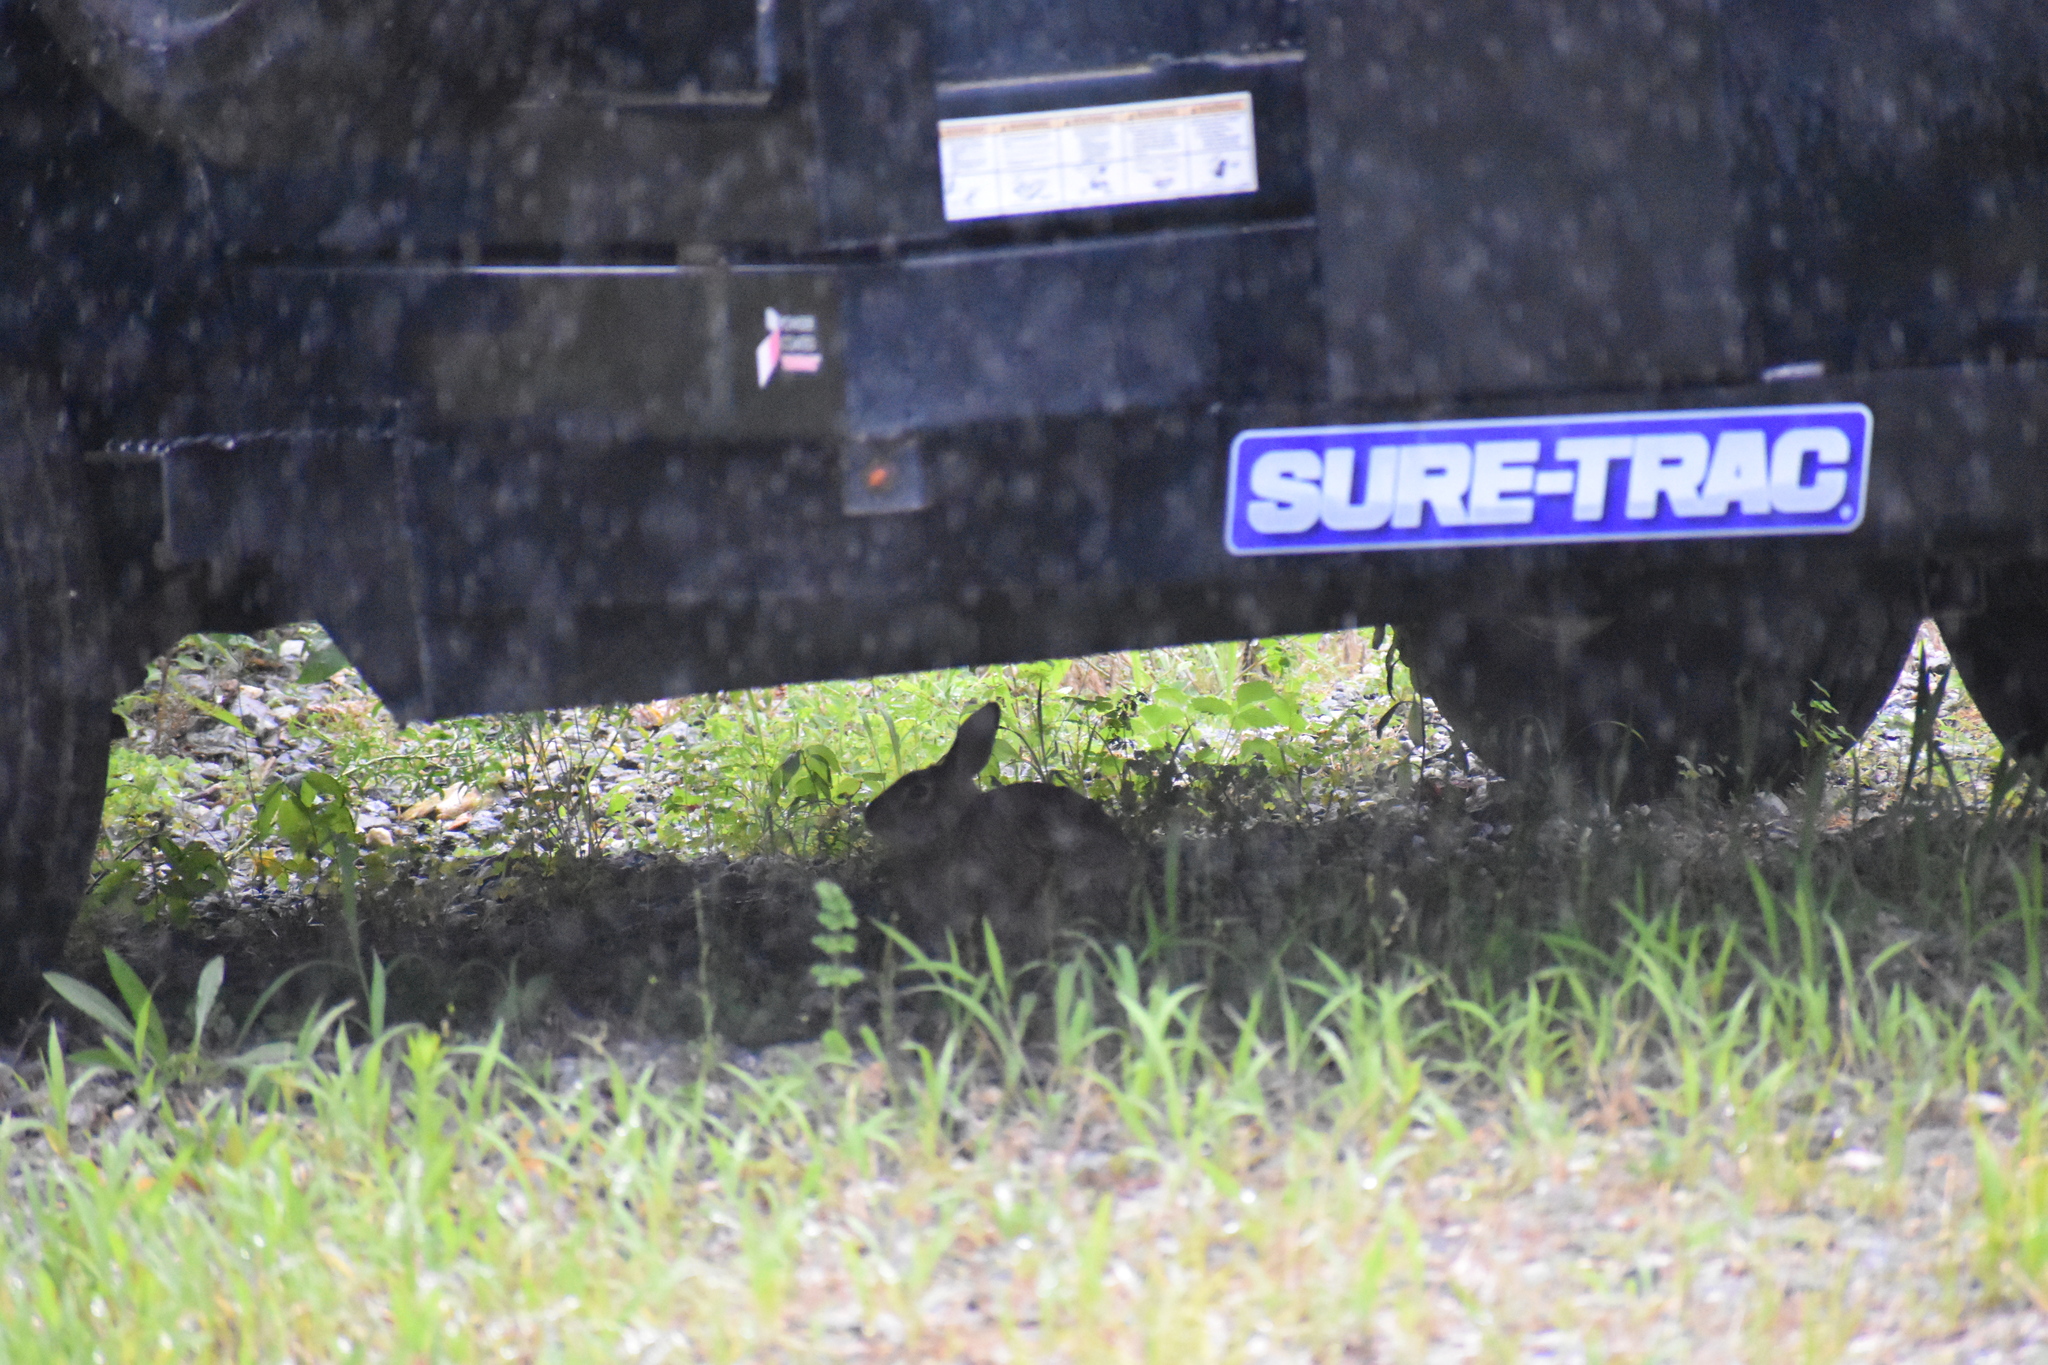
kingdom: Animalia
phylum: Chordata
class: Mammalia
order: Lagomorpha
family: Leporidae
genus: Sylvilagus
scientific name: Sylvilagus floridanus
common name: Eastern cottontail
